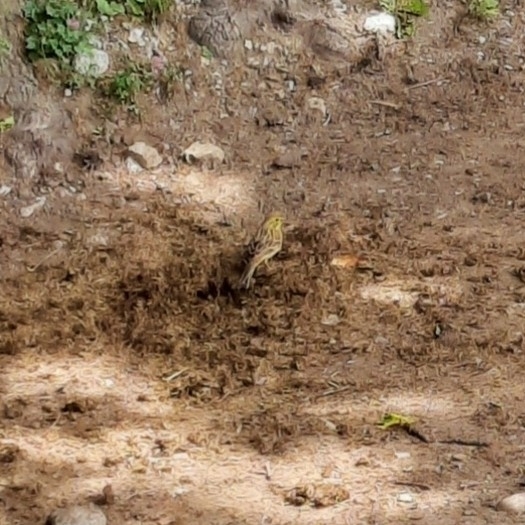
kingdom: Animalia
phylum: Chordata
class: Aves
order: Passeriformes
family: Emberizidae
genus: Emberiza
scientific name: Emberiza citrinella
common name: Yellowhammer
